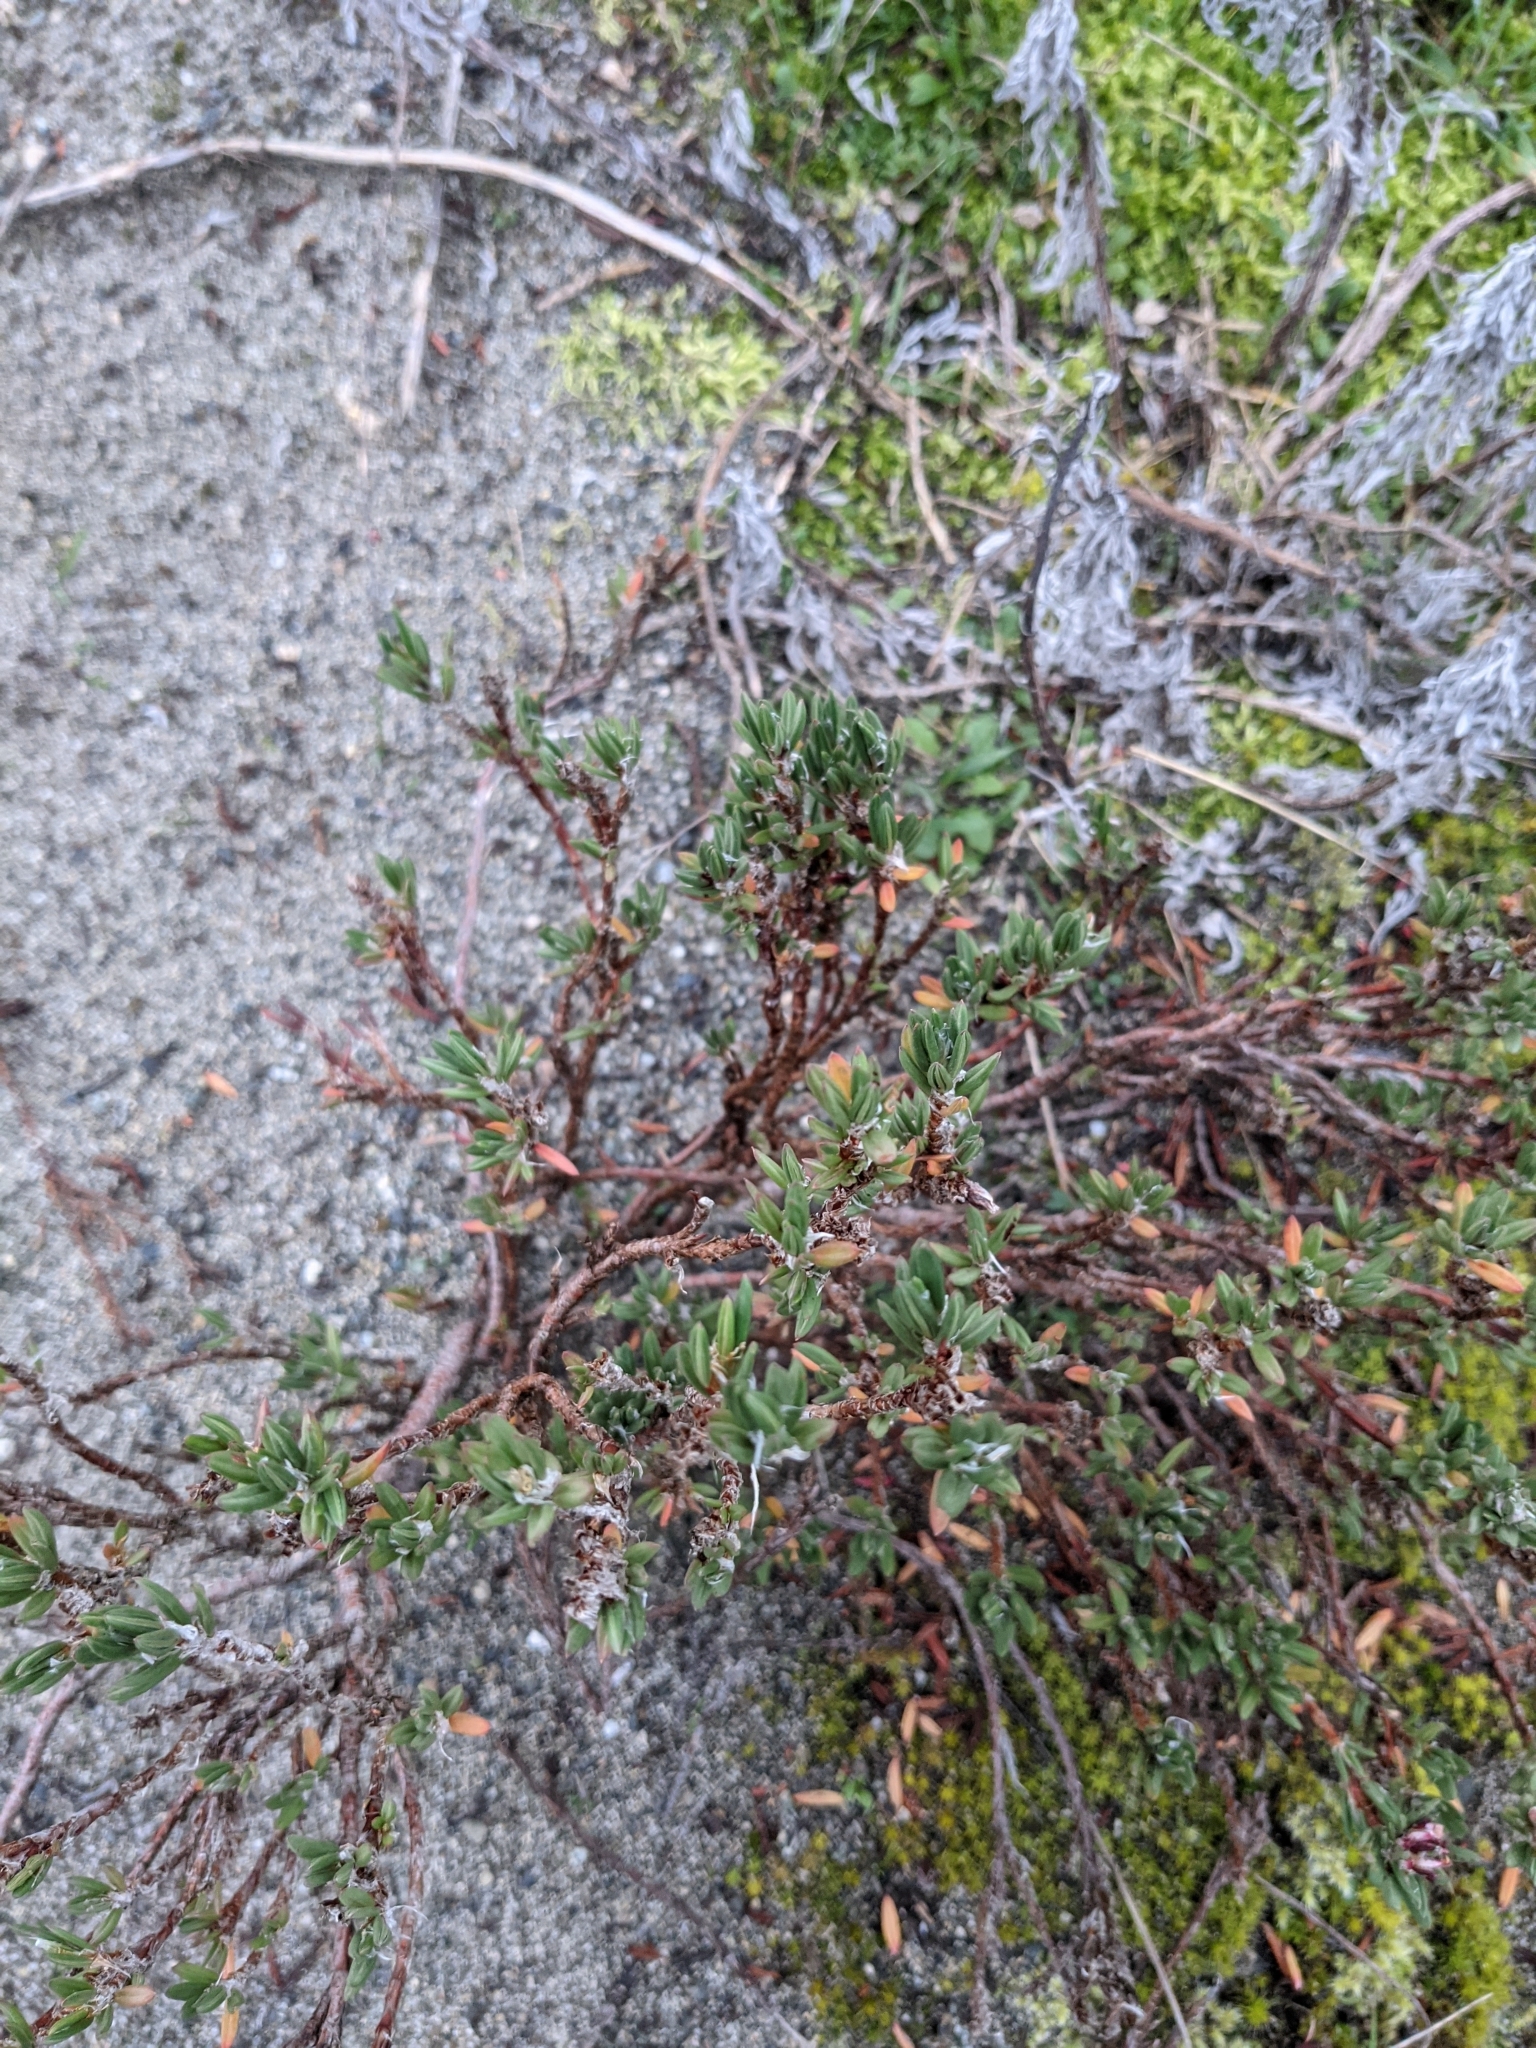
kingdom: Plantae
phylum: Tracheophyta
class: Magnoliopsida
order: Caryophyllales
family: Polygonaceae
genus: Polygonum
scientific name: Polygonum paronychia
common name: Dune knotweed
